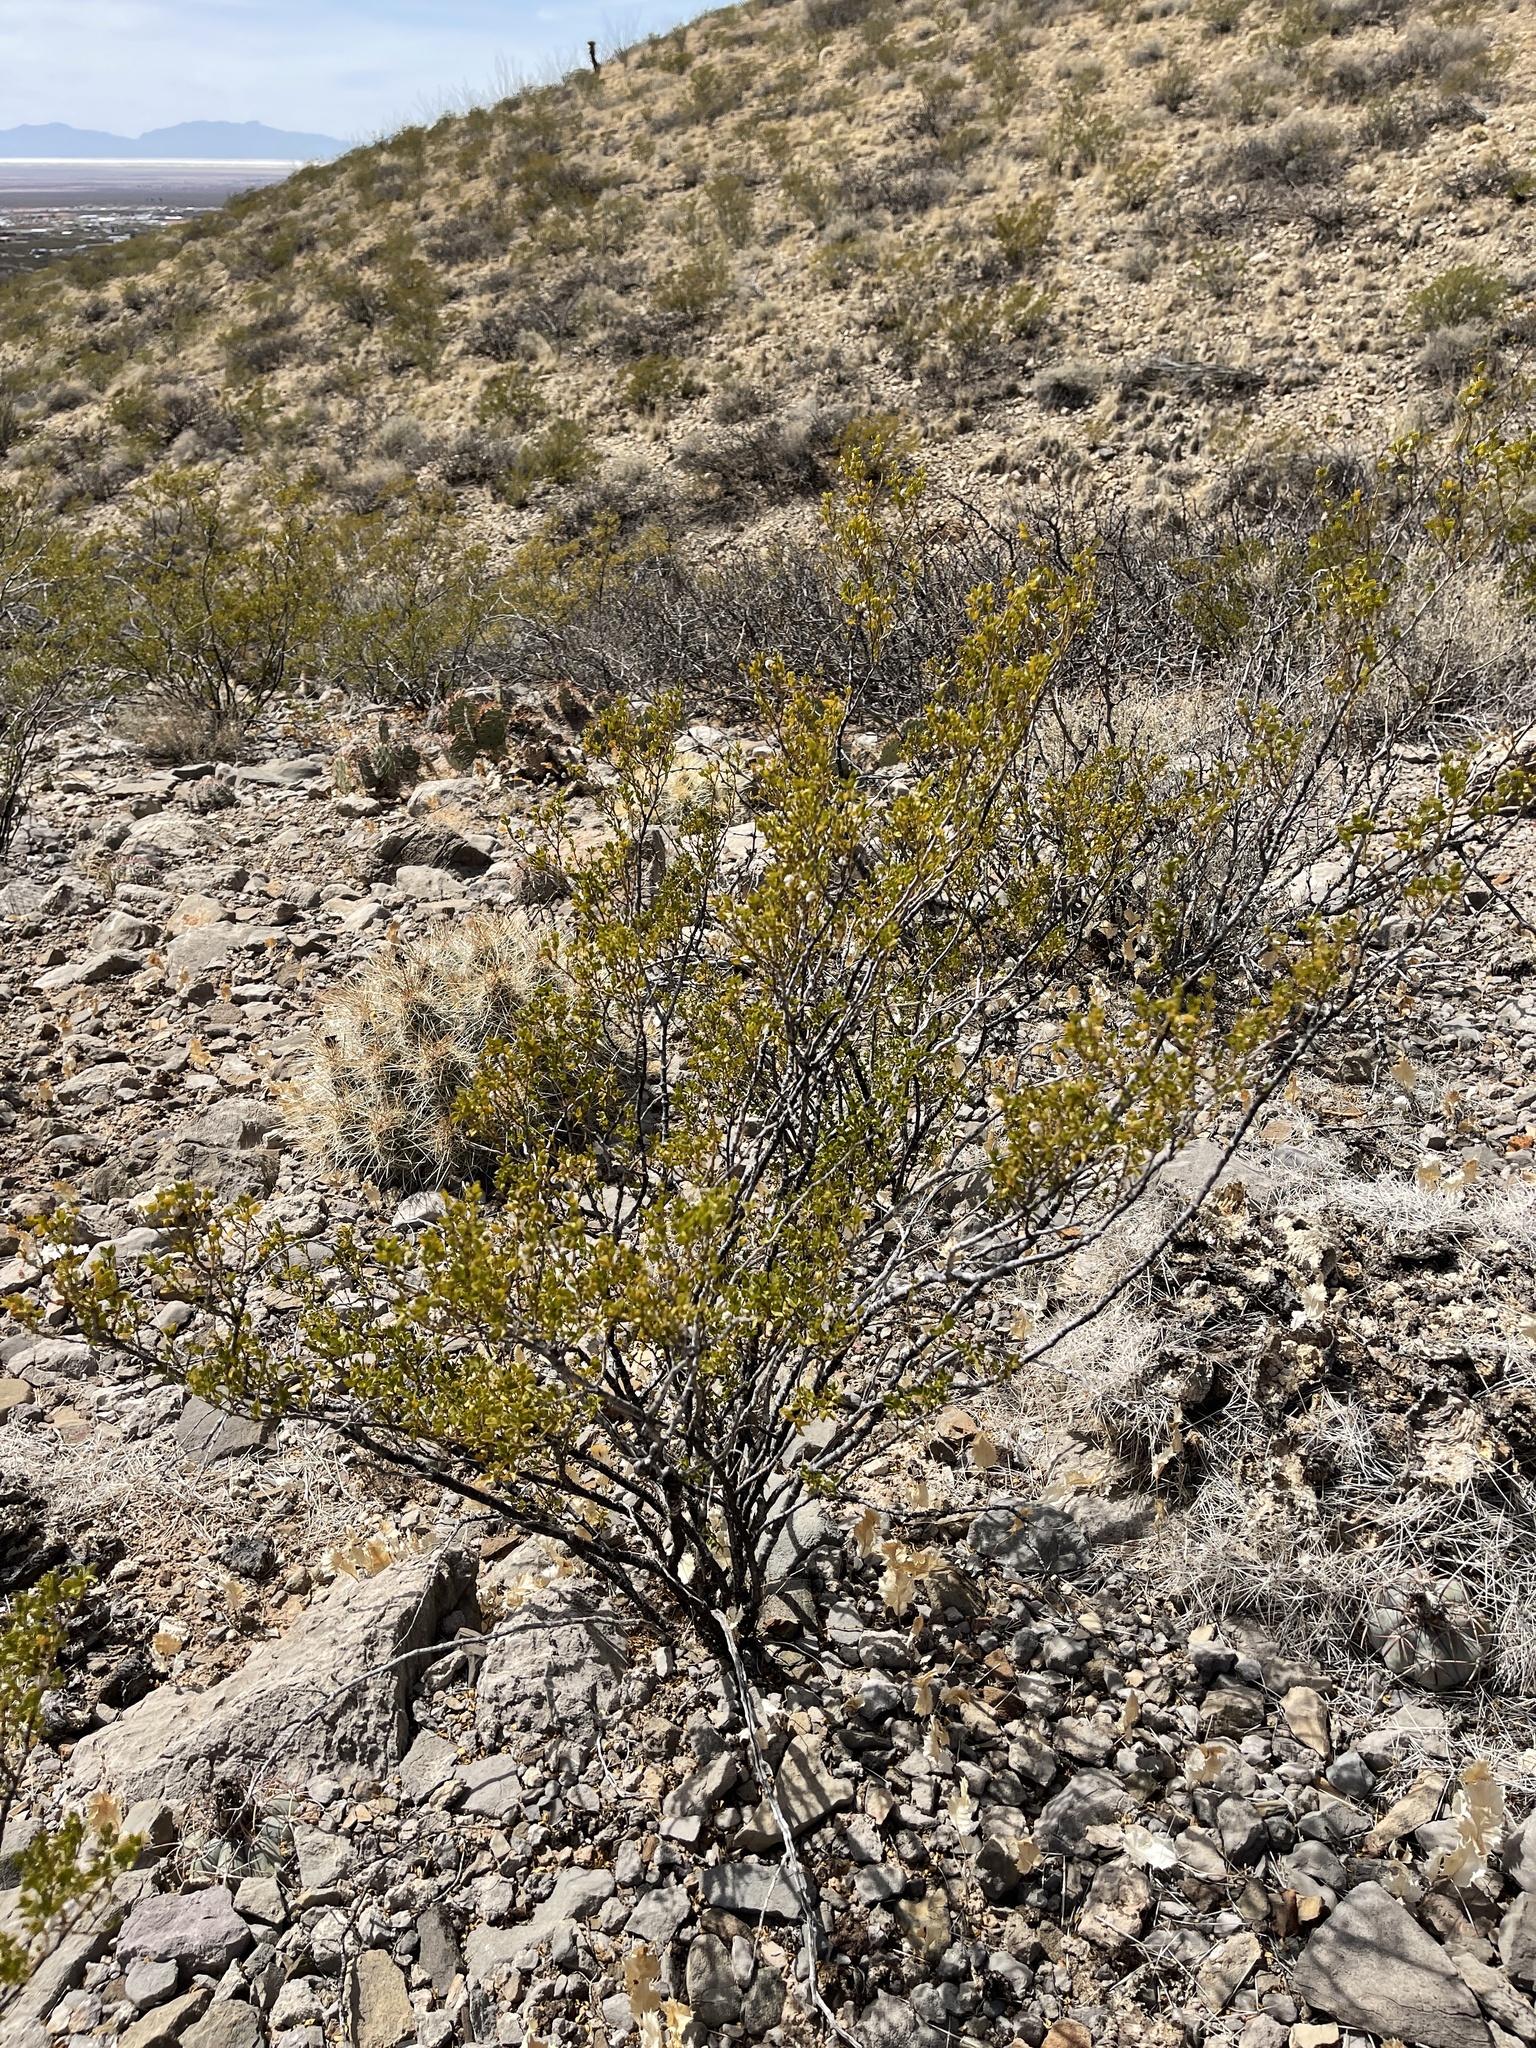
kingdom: Plantae
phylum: Tracheophyta
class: Magnoliopsida
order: Zygophyllales
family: Zygophyllaceae
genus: Larrea
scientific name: Larrea tridentata
